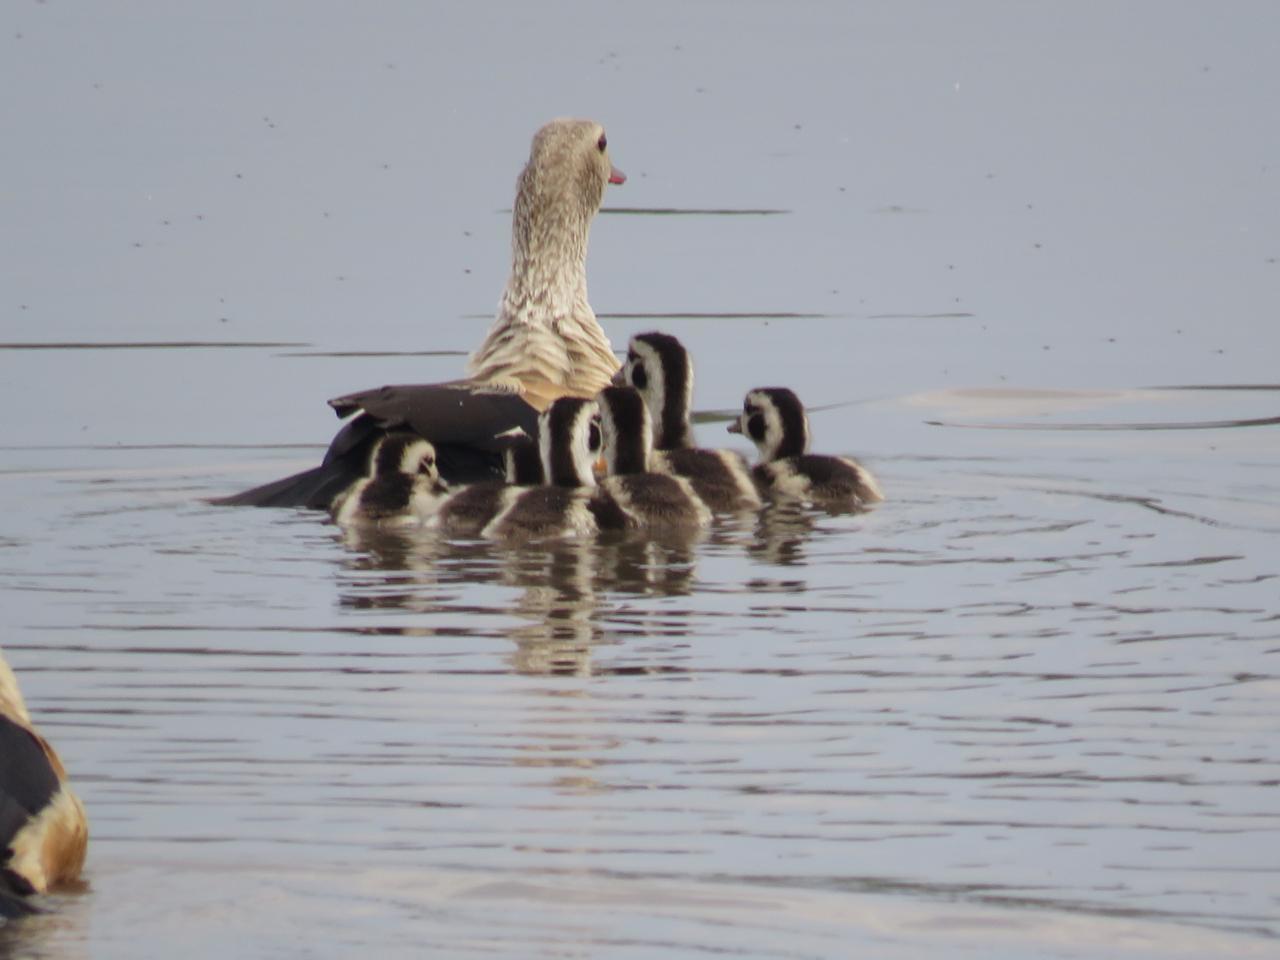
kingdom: Animalia
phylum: Chordata
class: Aves
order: Anseriformes
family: Anatidae
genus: Oressochen
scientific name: Oressochen jubatus
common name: Orinoco goose
